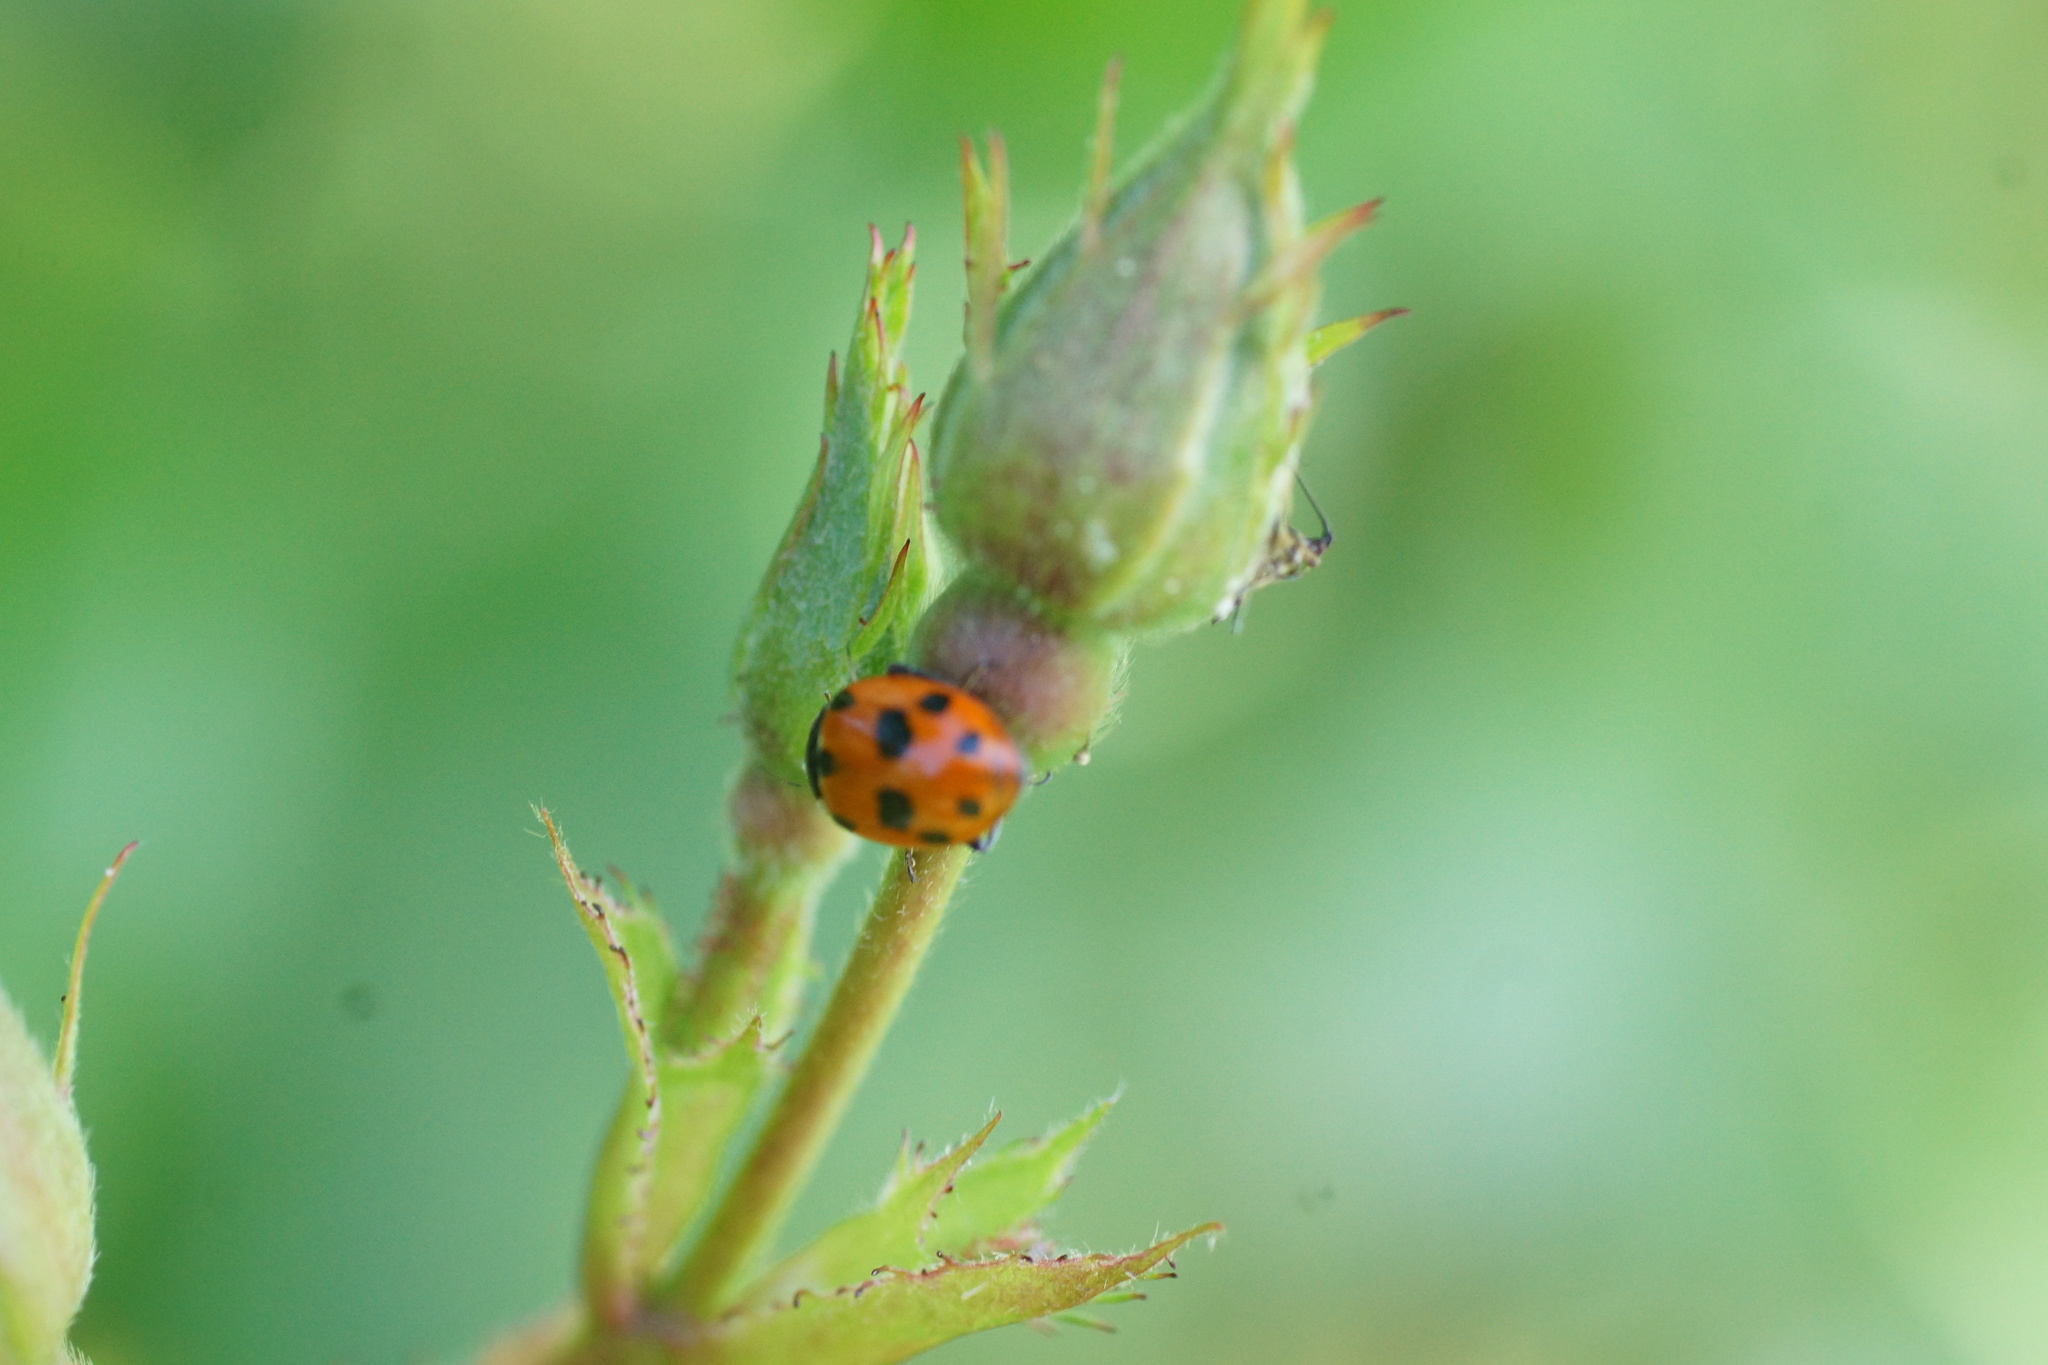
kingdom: Animalia
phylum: Arthropoda
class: Insecta
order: Coleoptera
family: Coccinellidae
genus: Hippodamia
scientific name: Hippodamia variegata
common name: Ladybird beetle
